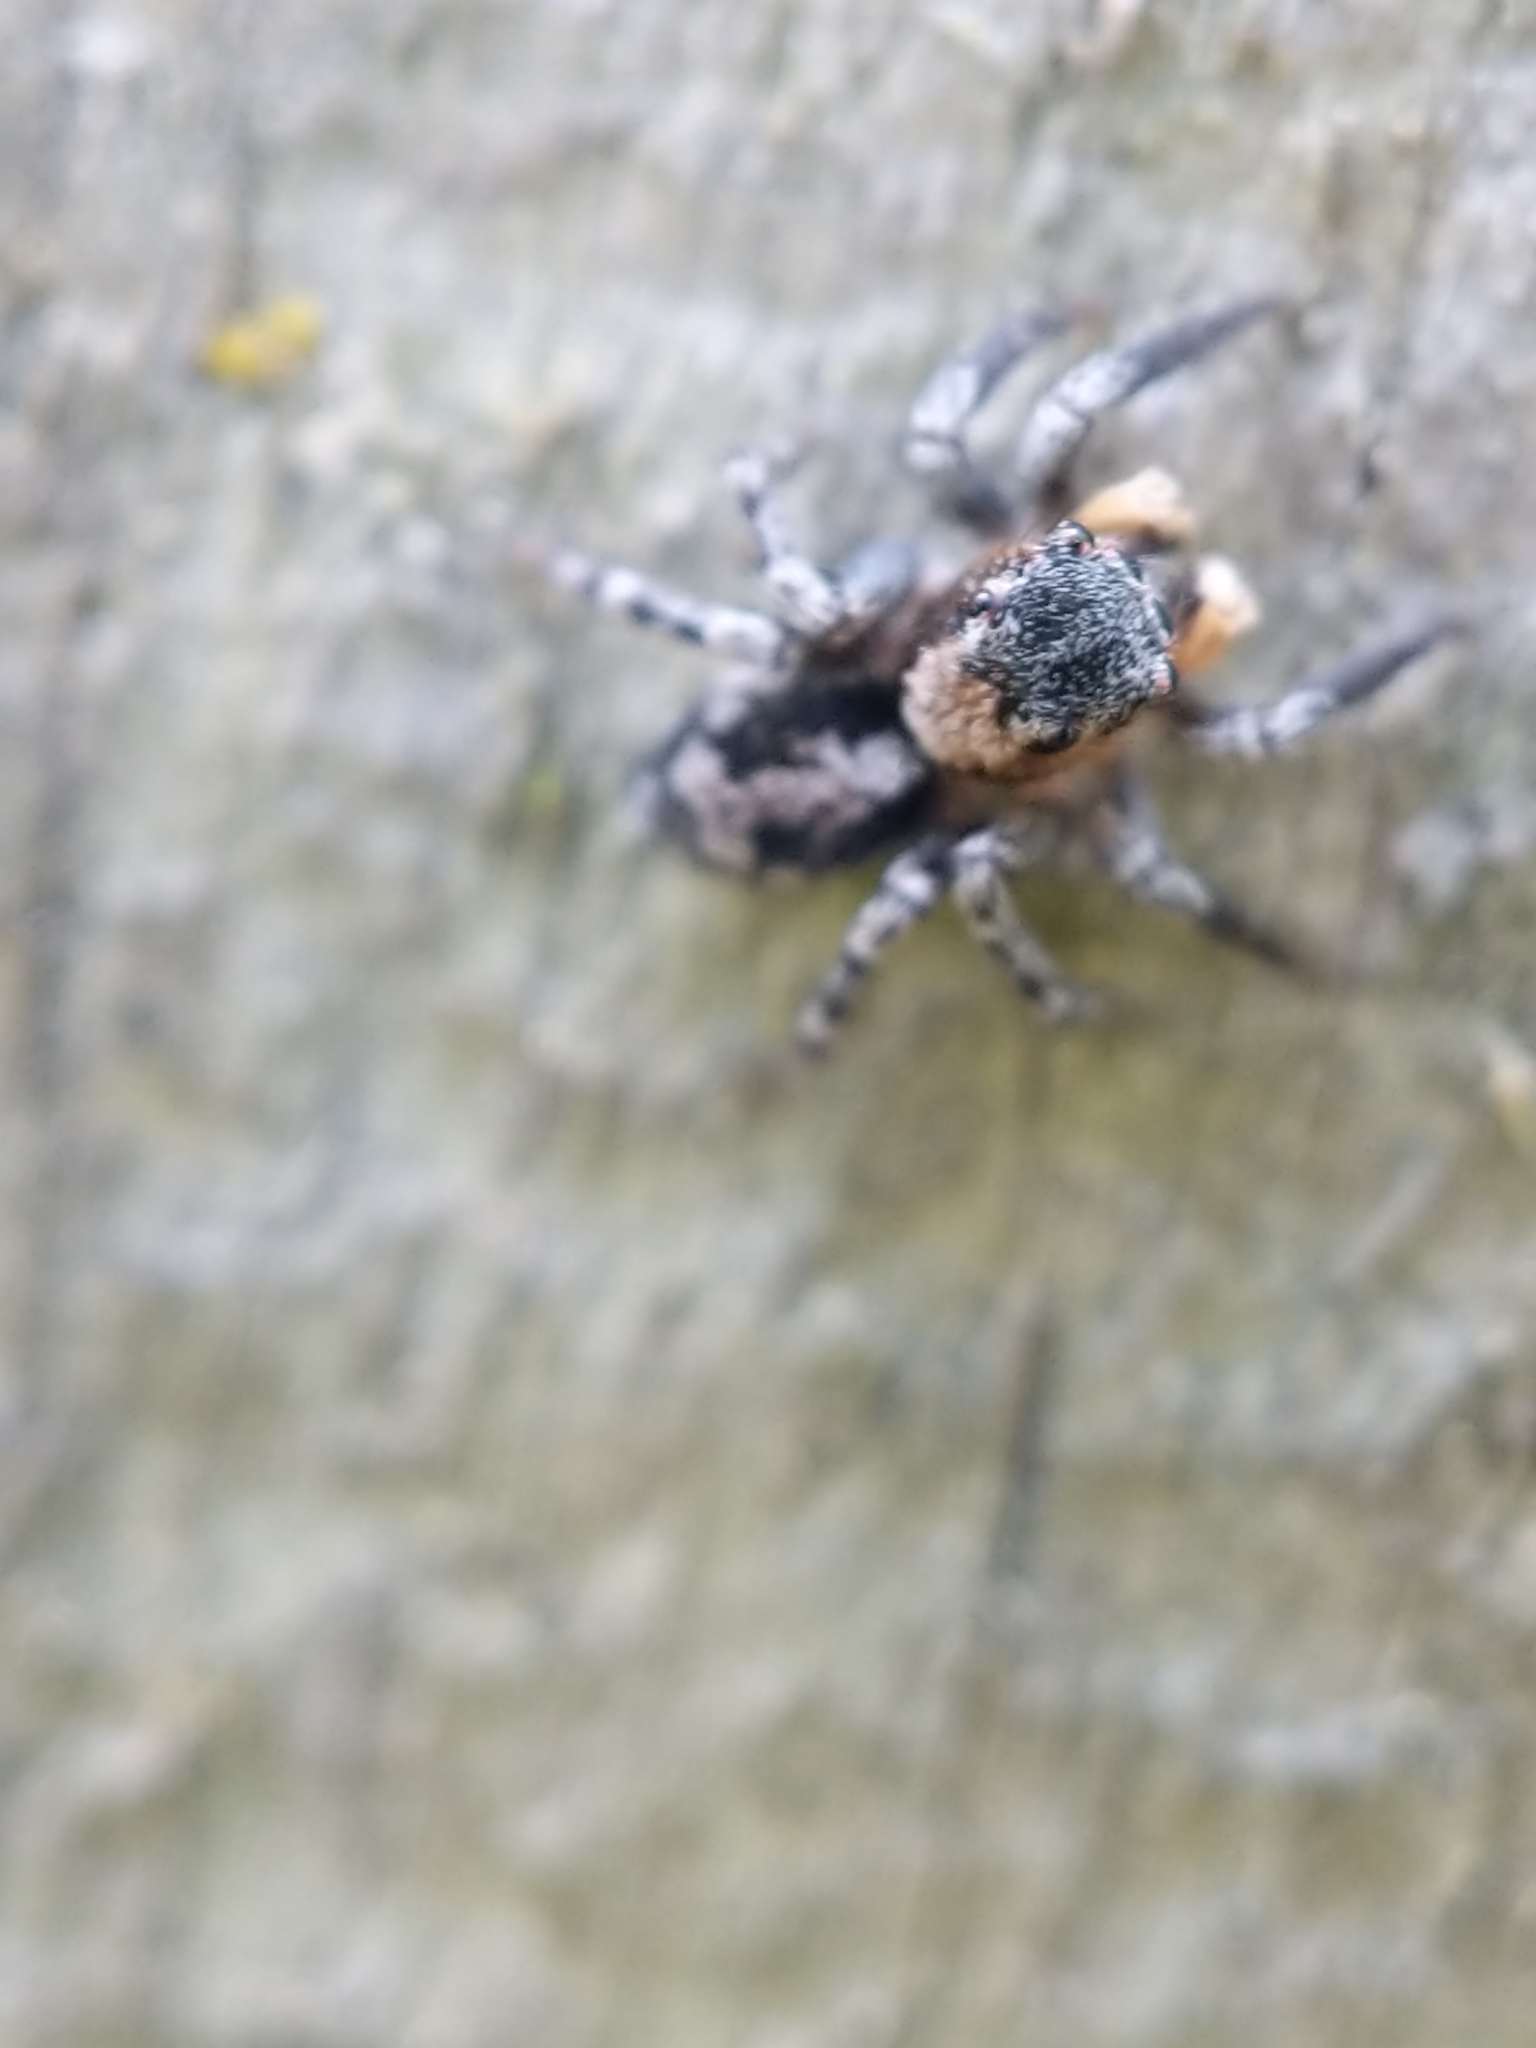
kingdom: Animalia
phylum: Arthropoda
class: Arachnida
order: Araneae
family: Salticidae
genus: Naphrys
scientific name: Naphrys pulex
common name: Flea jumping spider
